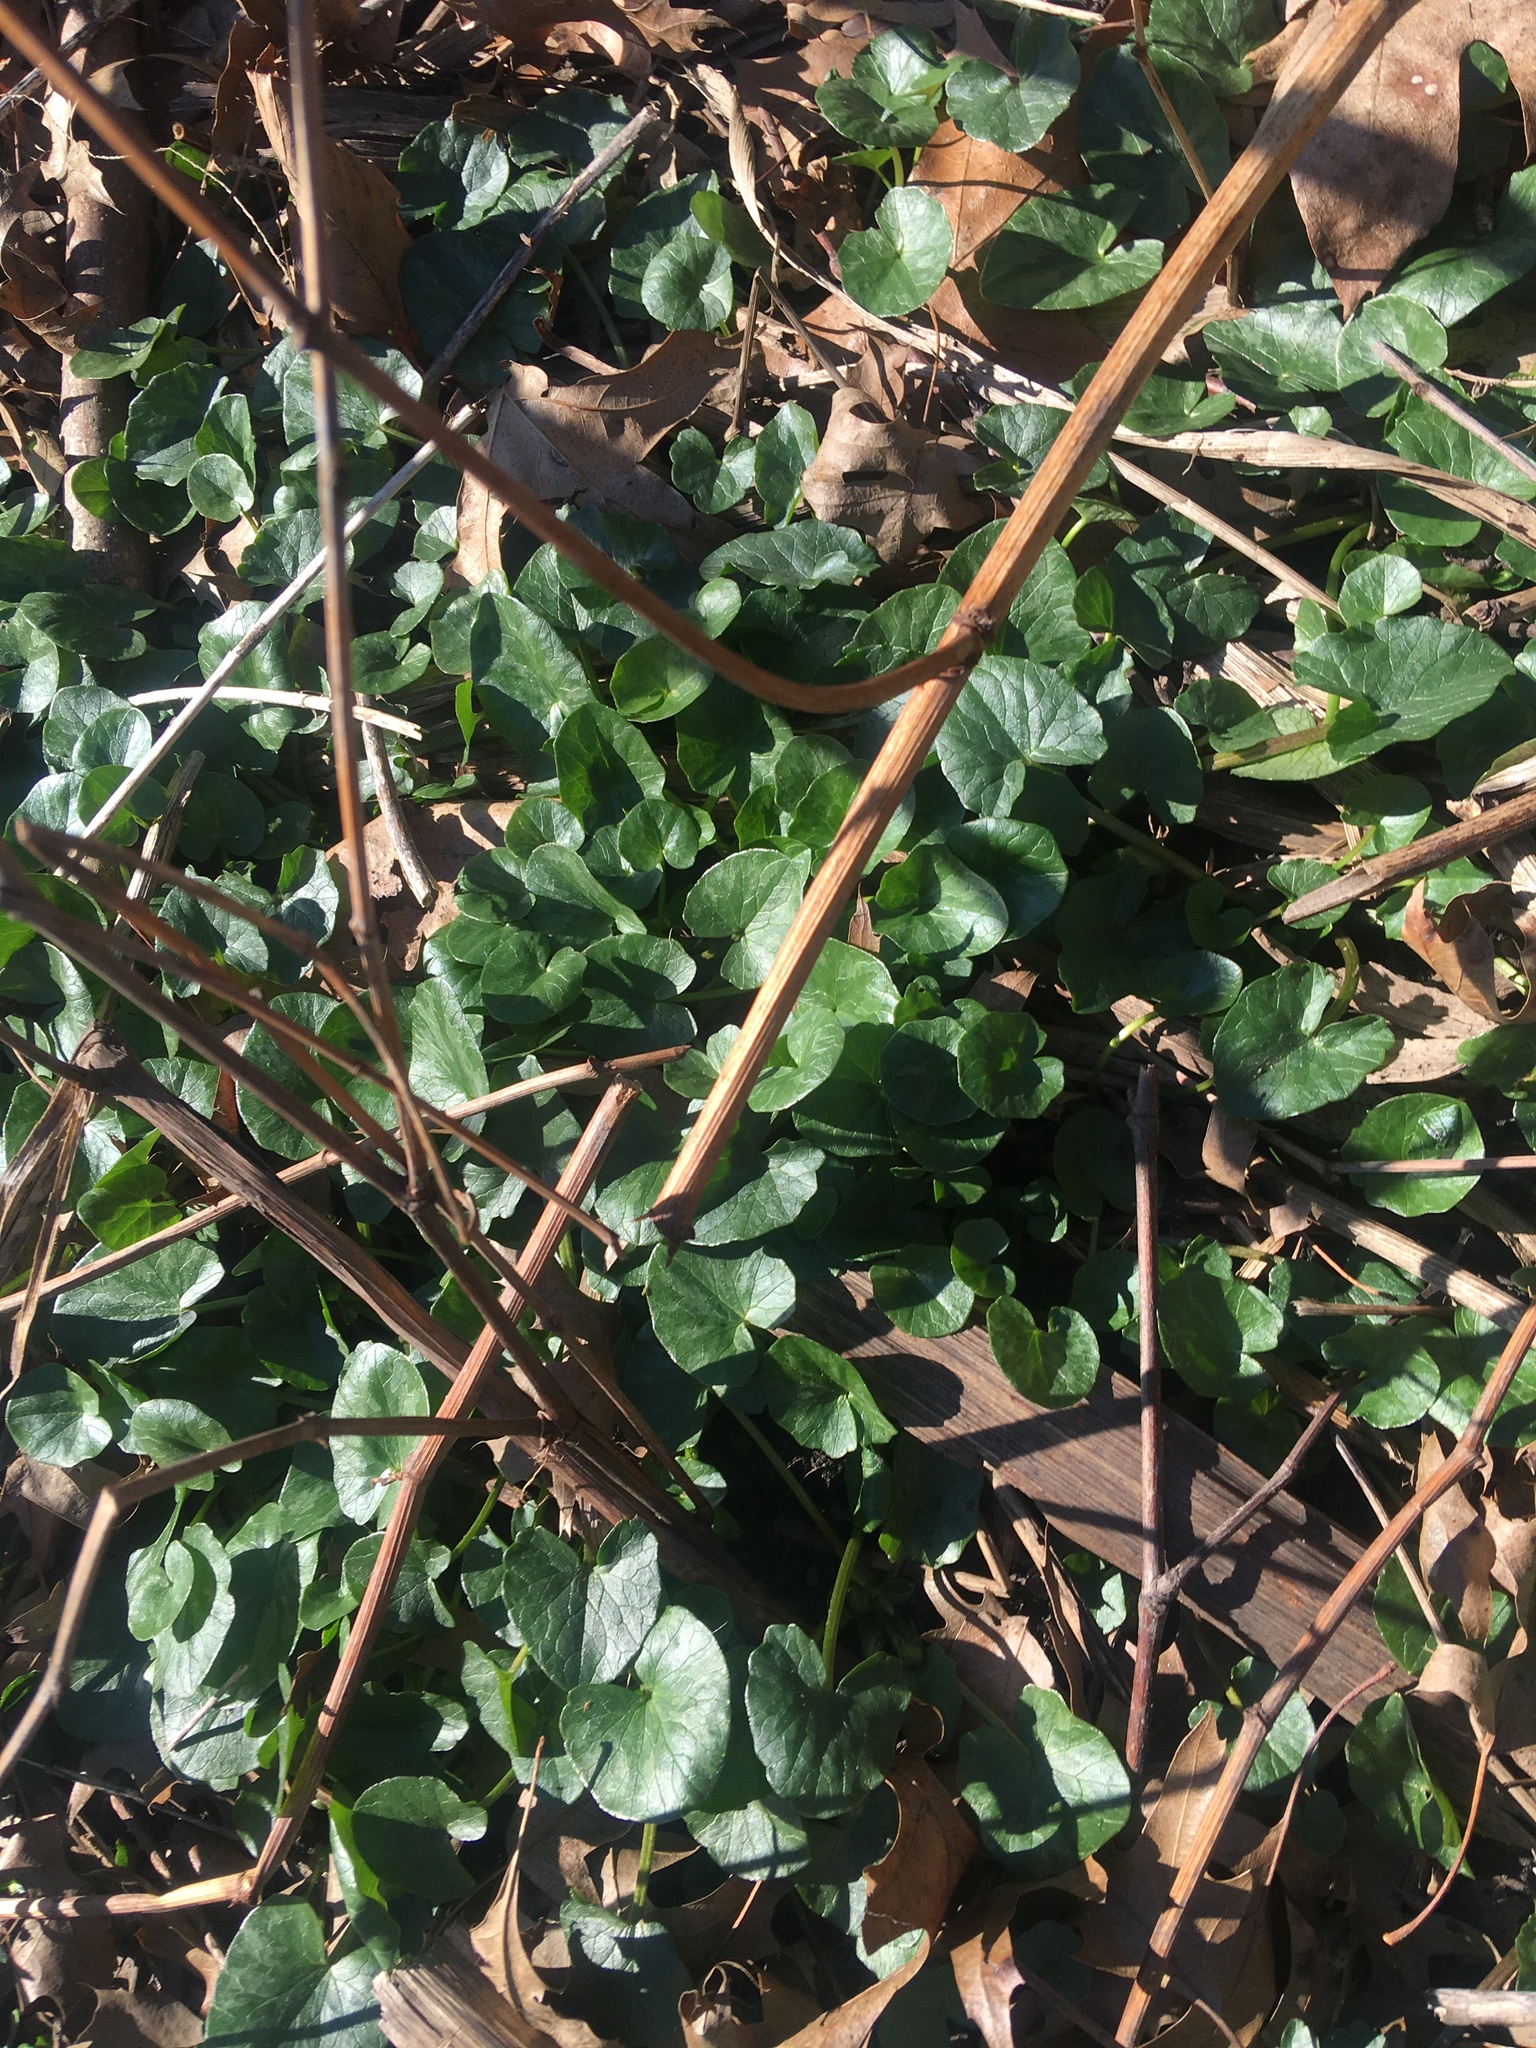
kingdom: Plantae
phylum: Tracheophyta
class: Magnoliopsida
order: Ranunculales
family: Ranunculaceae
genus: Ficaria
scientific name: Ficaria verna
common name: Lesser celandine
